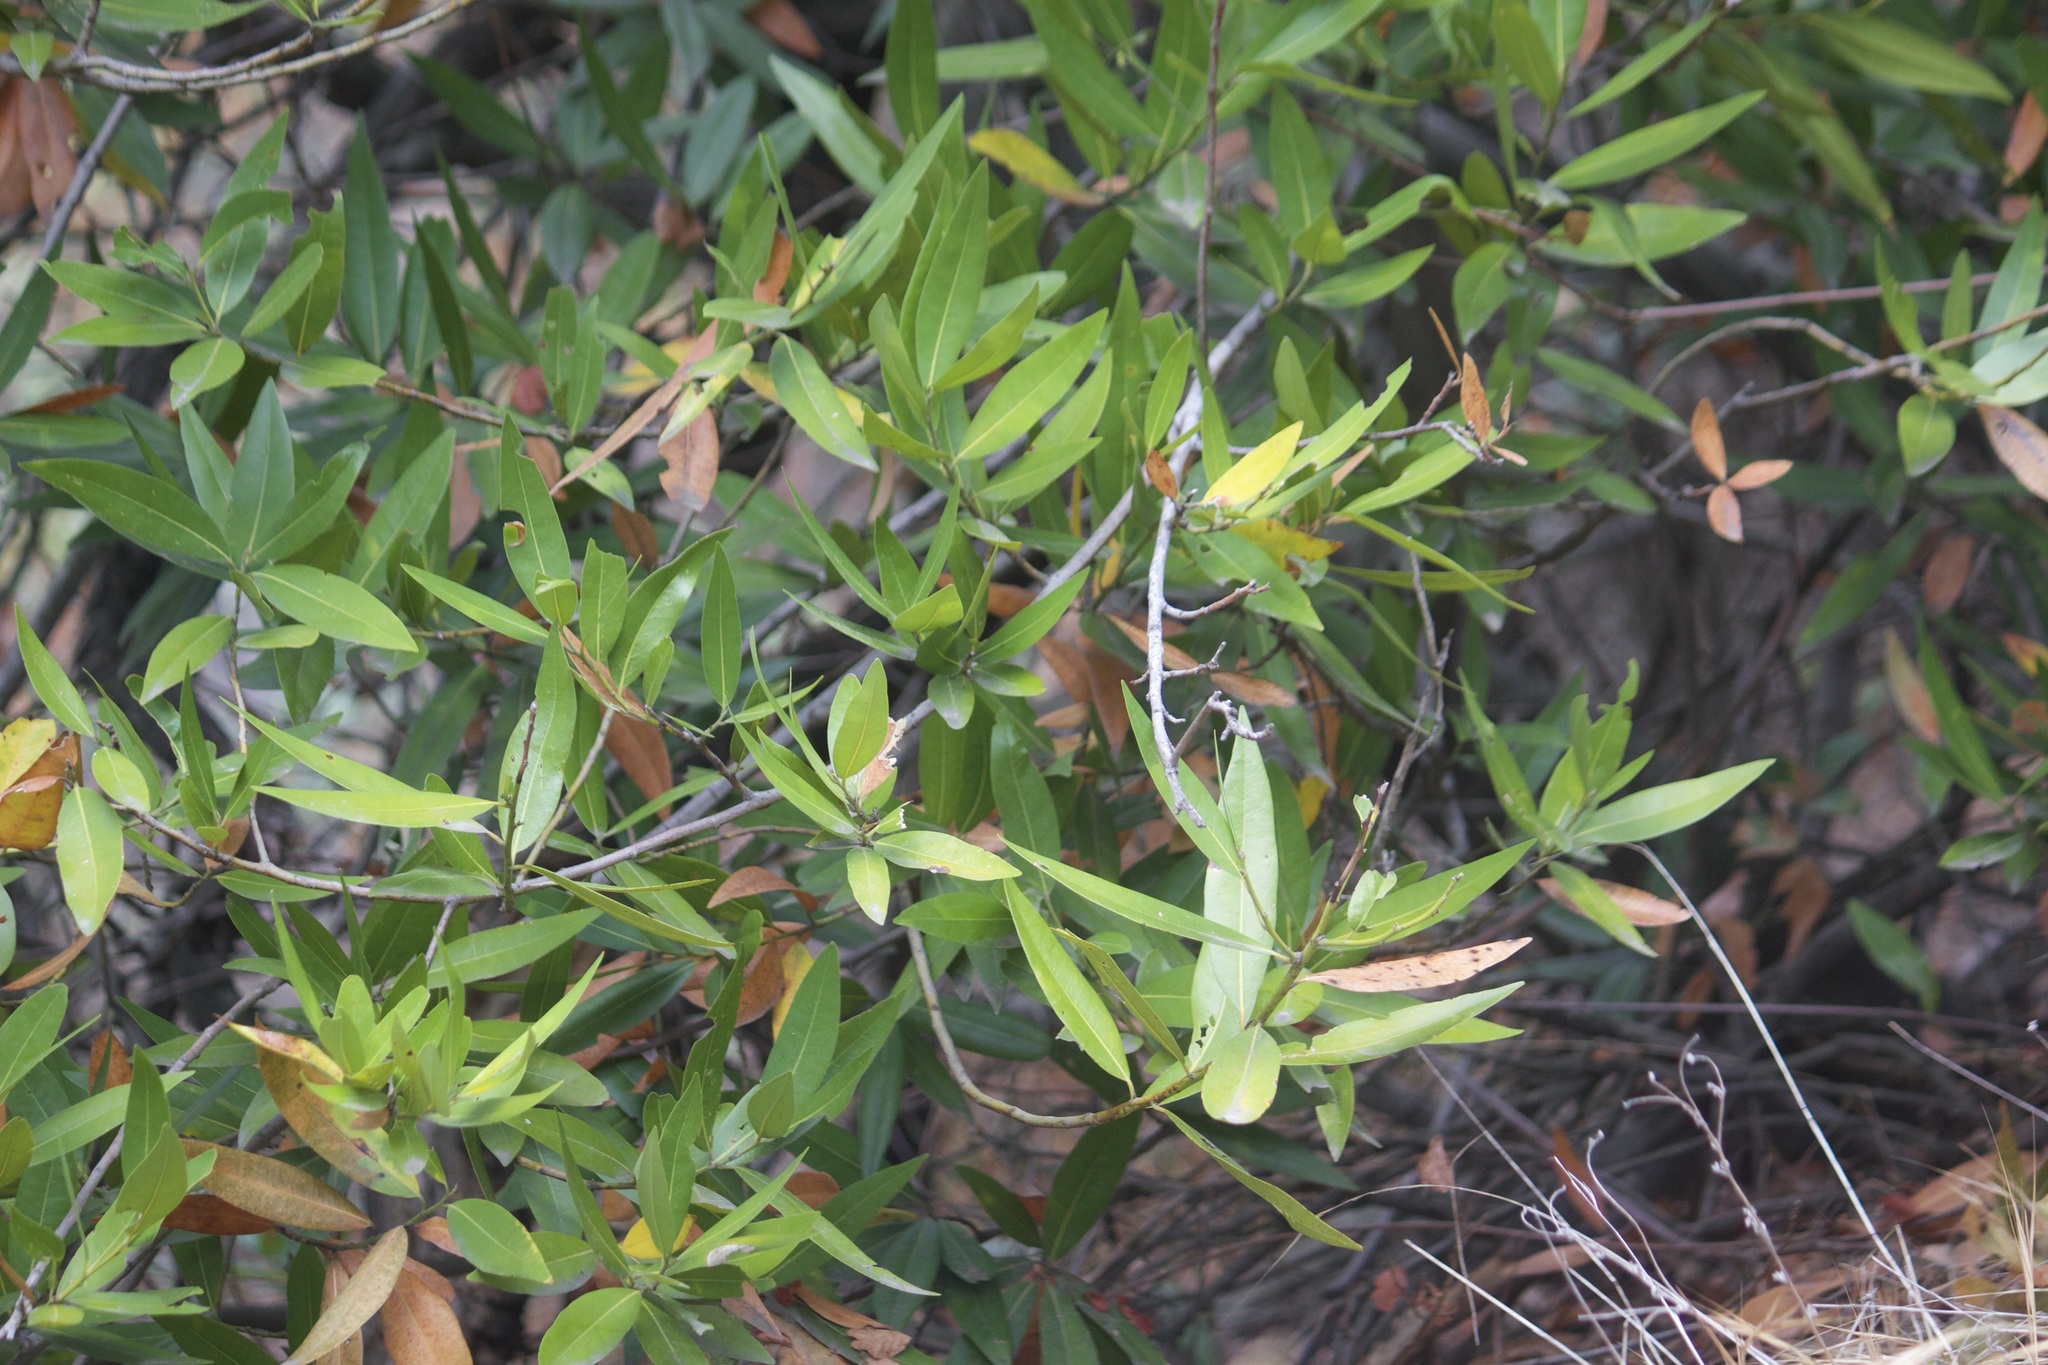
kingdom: Plantae
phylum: Tracheophyta
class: Magnoliopsida
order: Laurales
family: Lauraceae
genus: Umbellularia
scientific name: Umbellularia californica
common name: California bay
